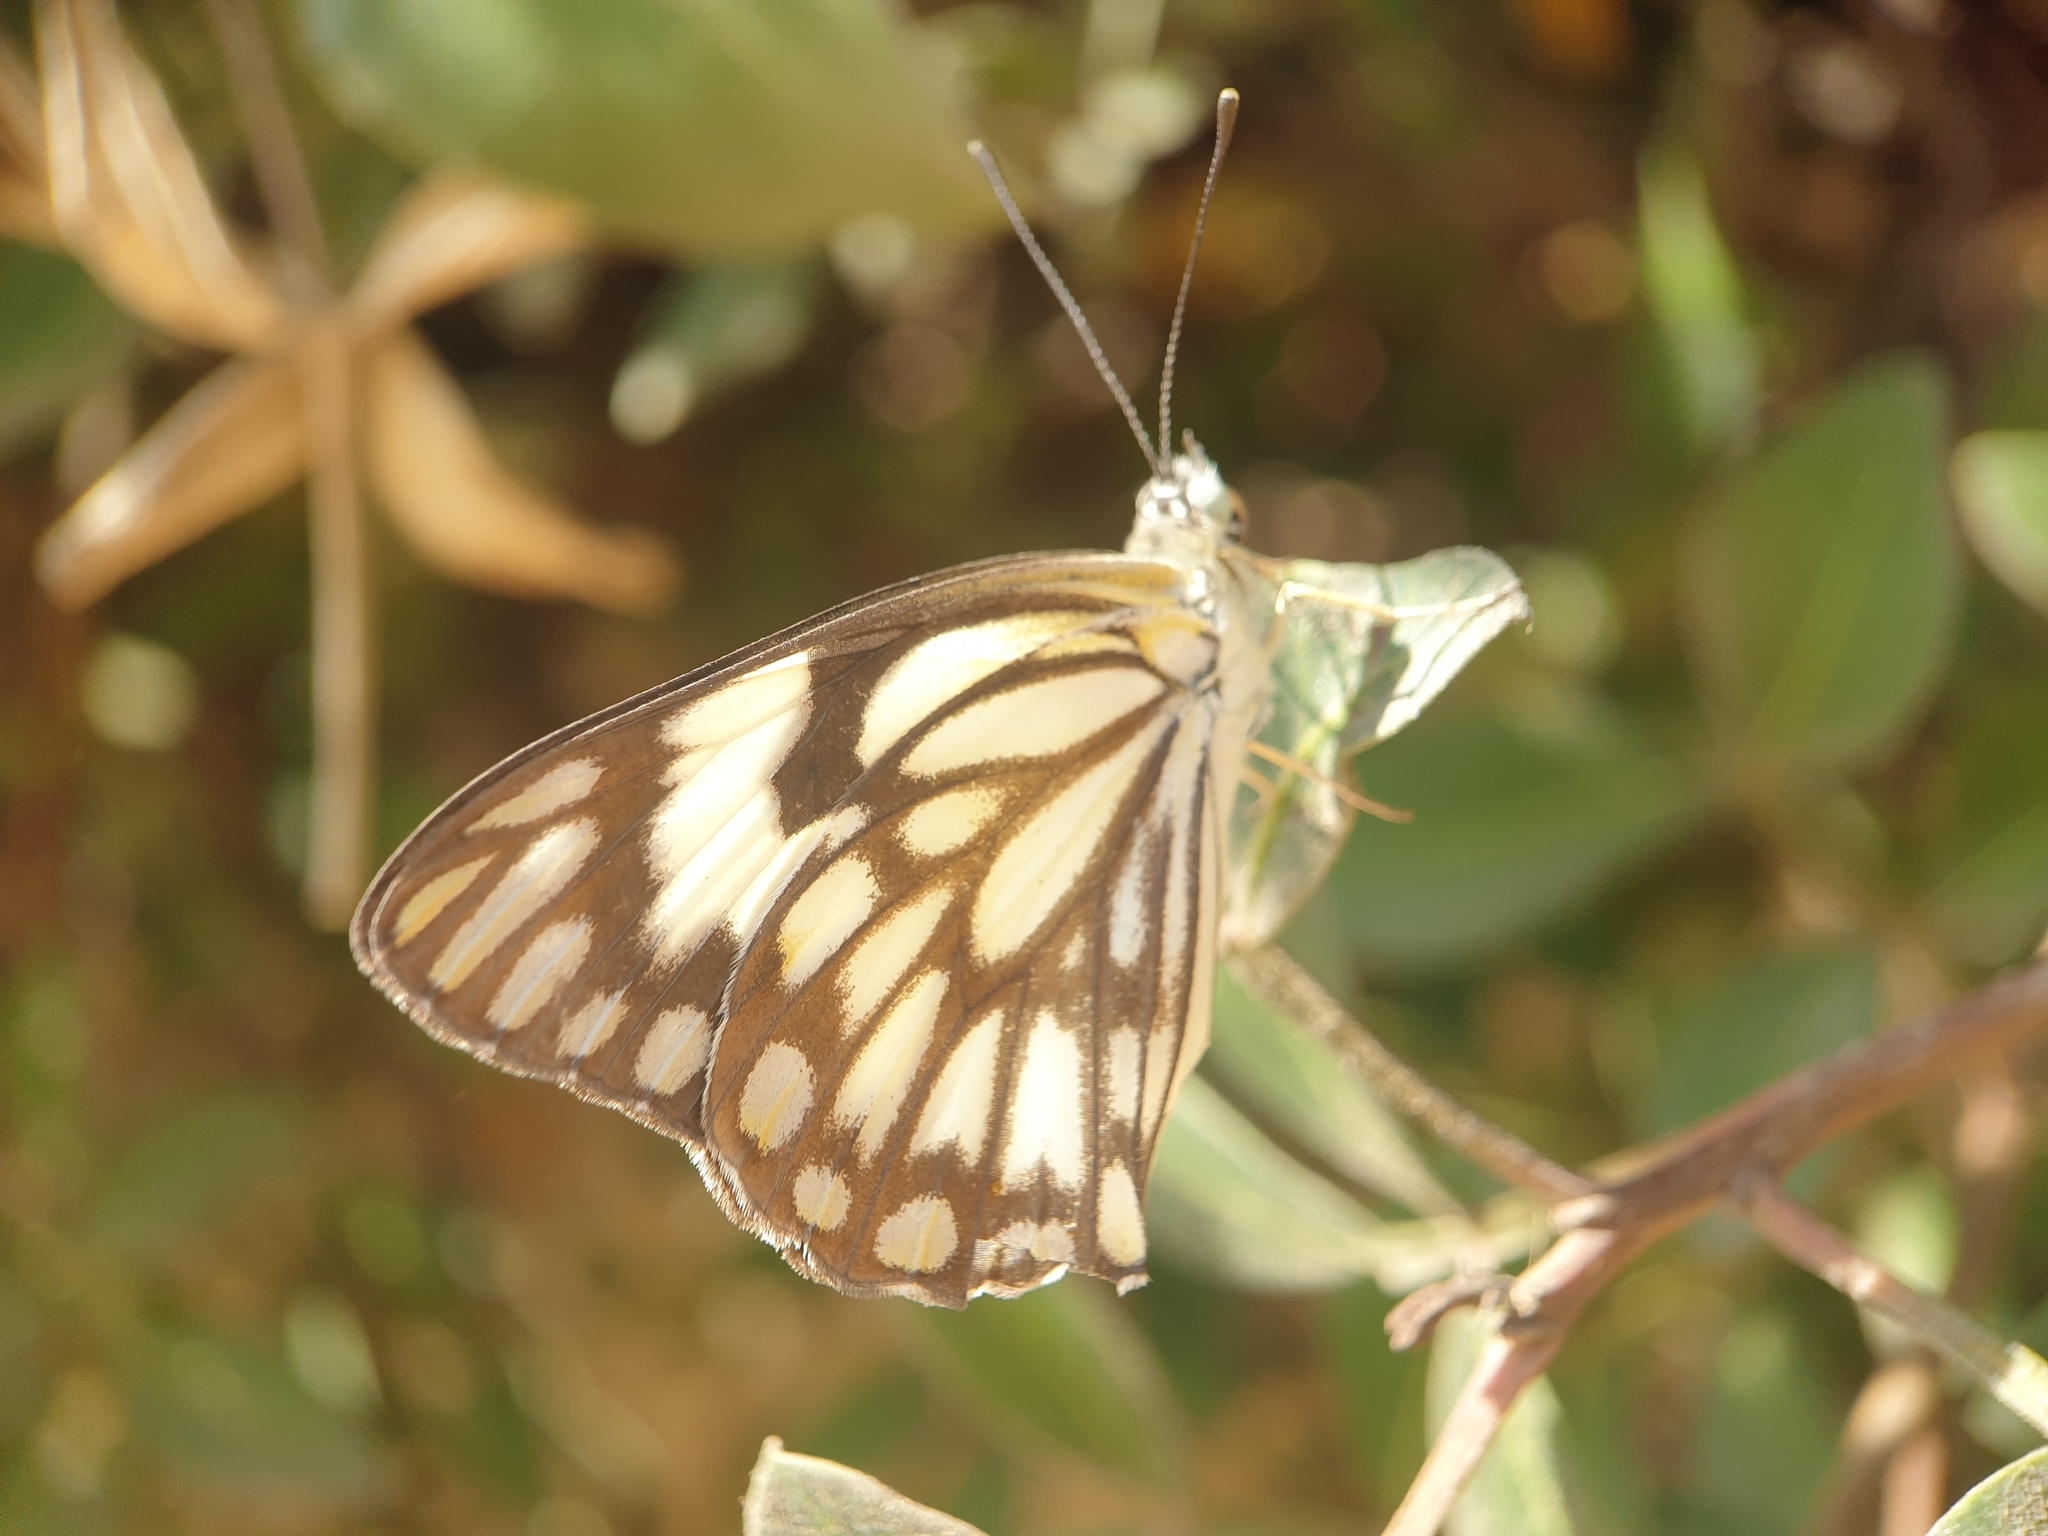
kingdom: Animalia
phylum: Arthropoda
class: Insecta
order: Lepidoptera
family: Pieridae
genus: Belenois
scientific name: Belenois aurota
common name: Brown-veined white
